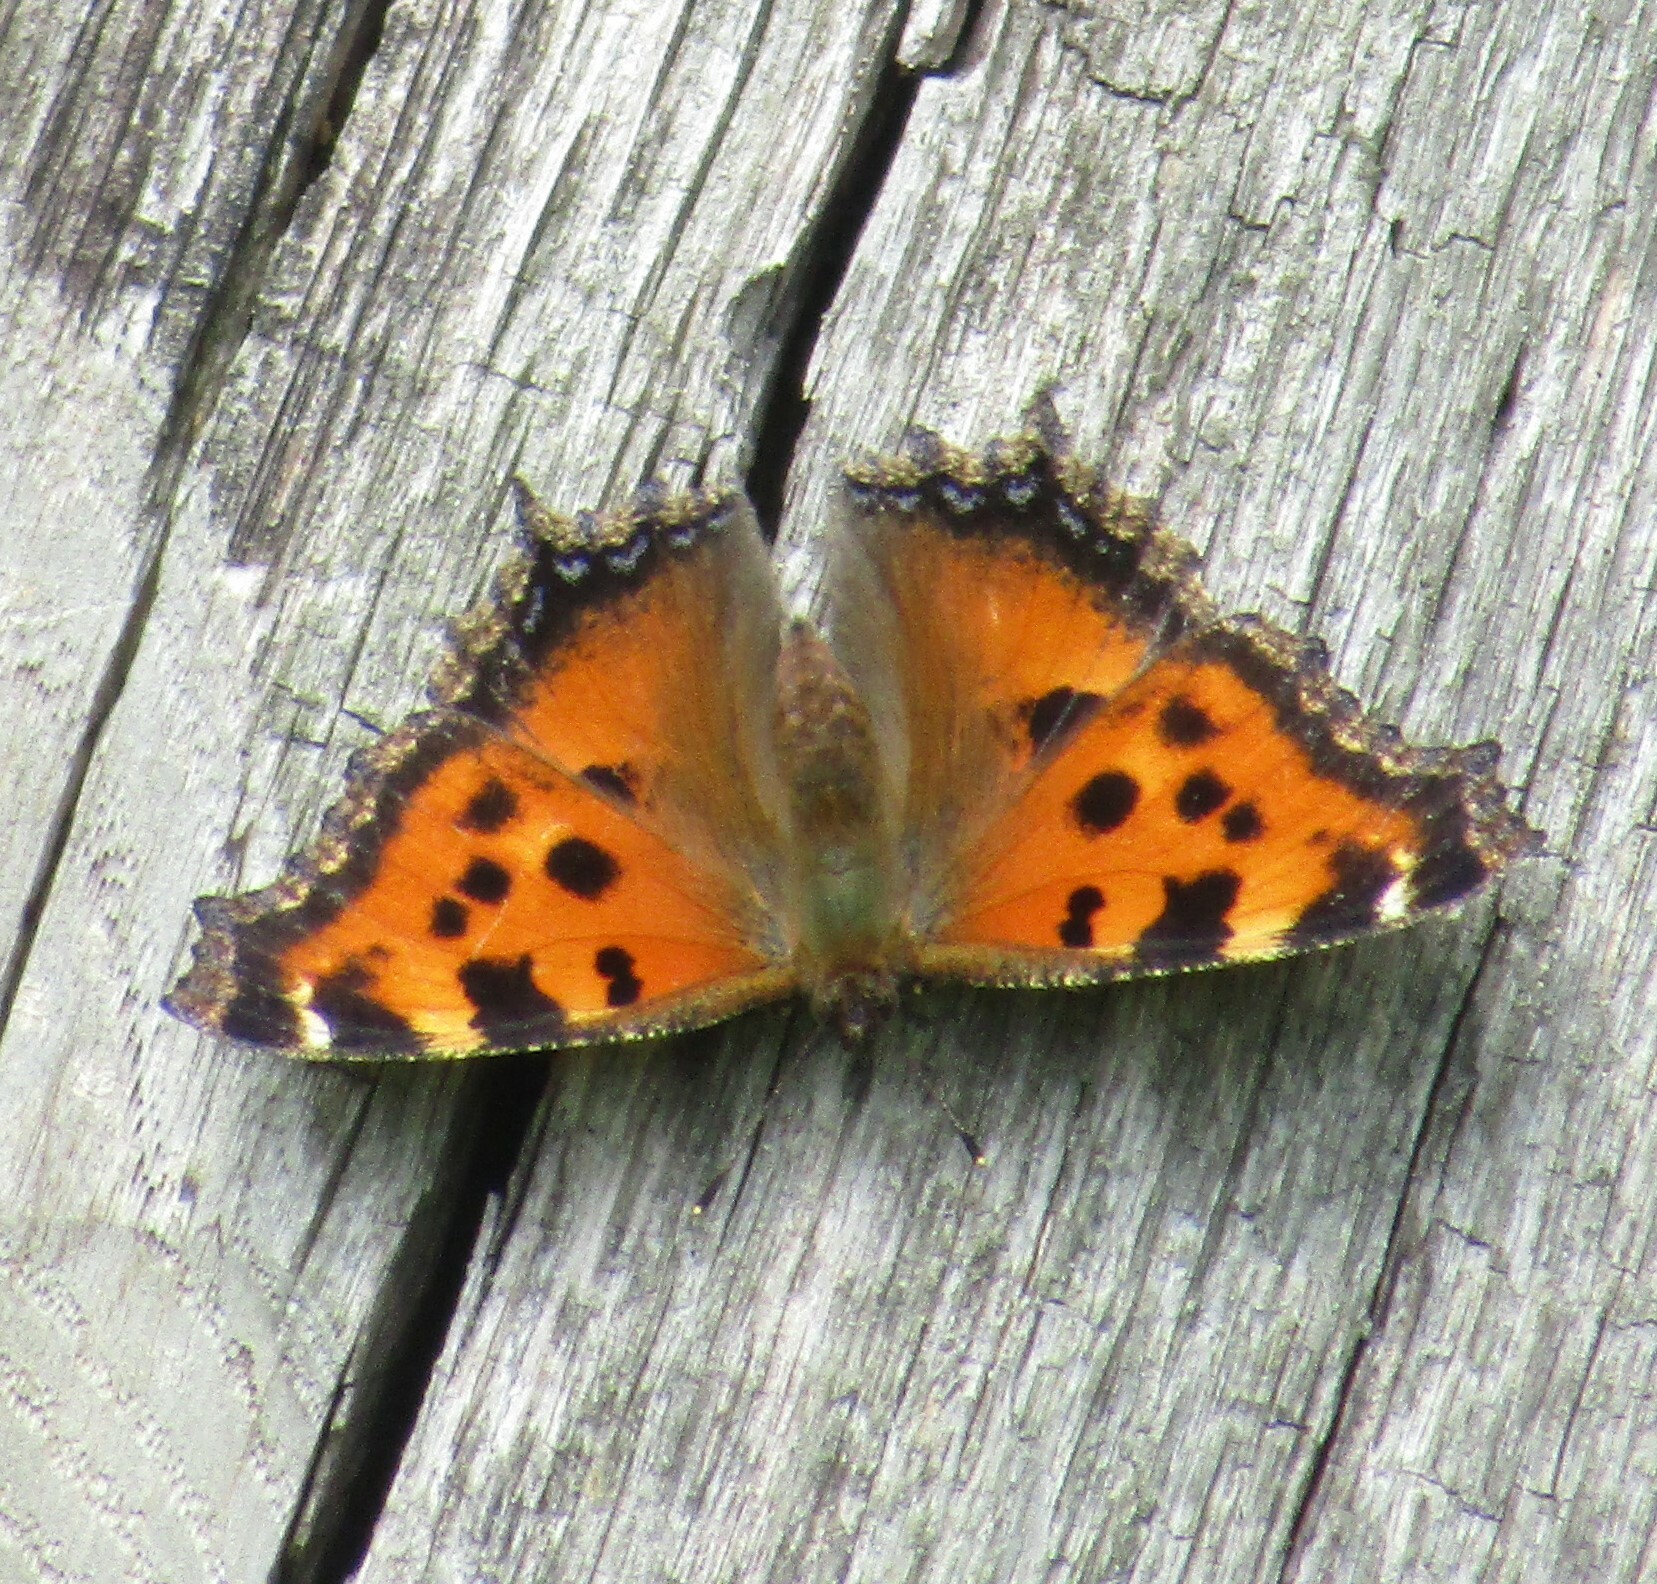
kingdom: Animalia
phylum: Arthropoda
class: Insecta
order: Lepidoptera
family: Nymphalidae
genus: Nymphalis
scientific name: Nymphalis xanthomelas
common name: Scarce tortoiseshell
